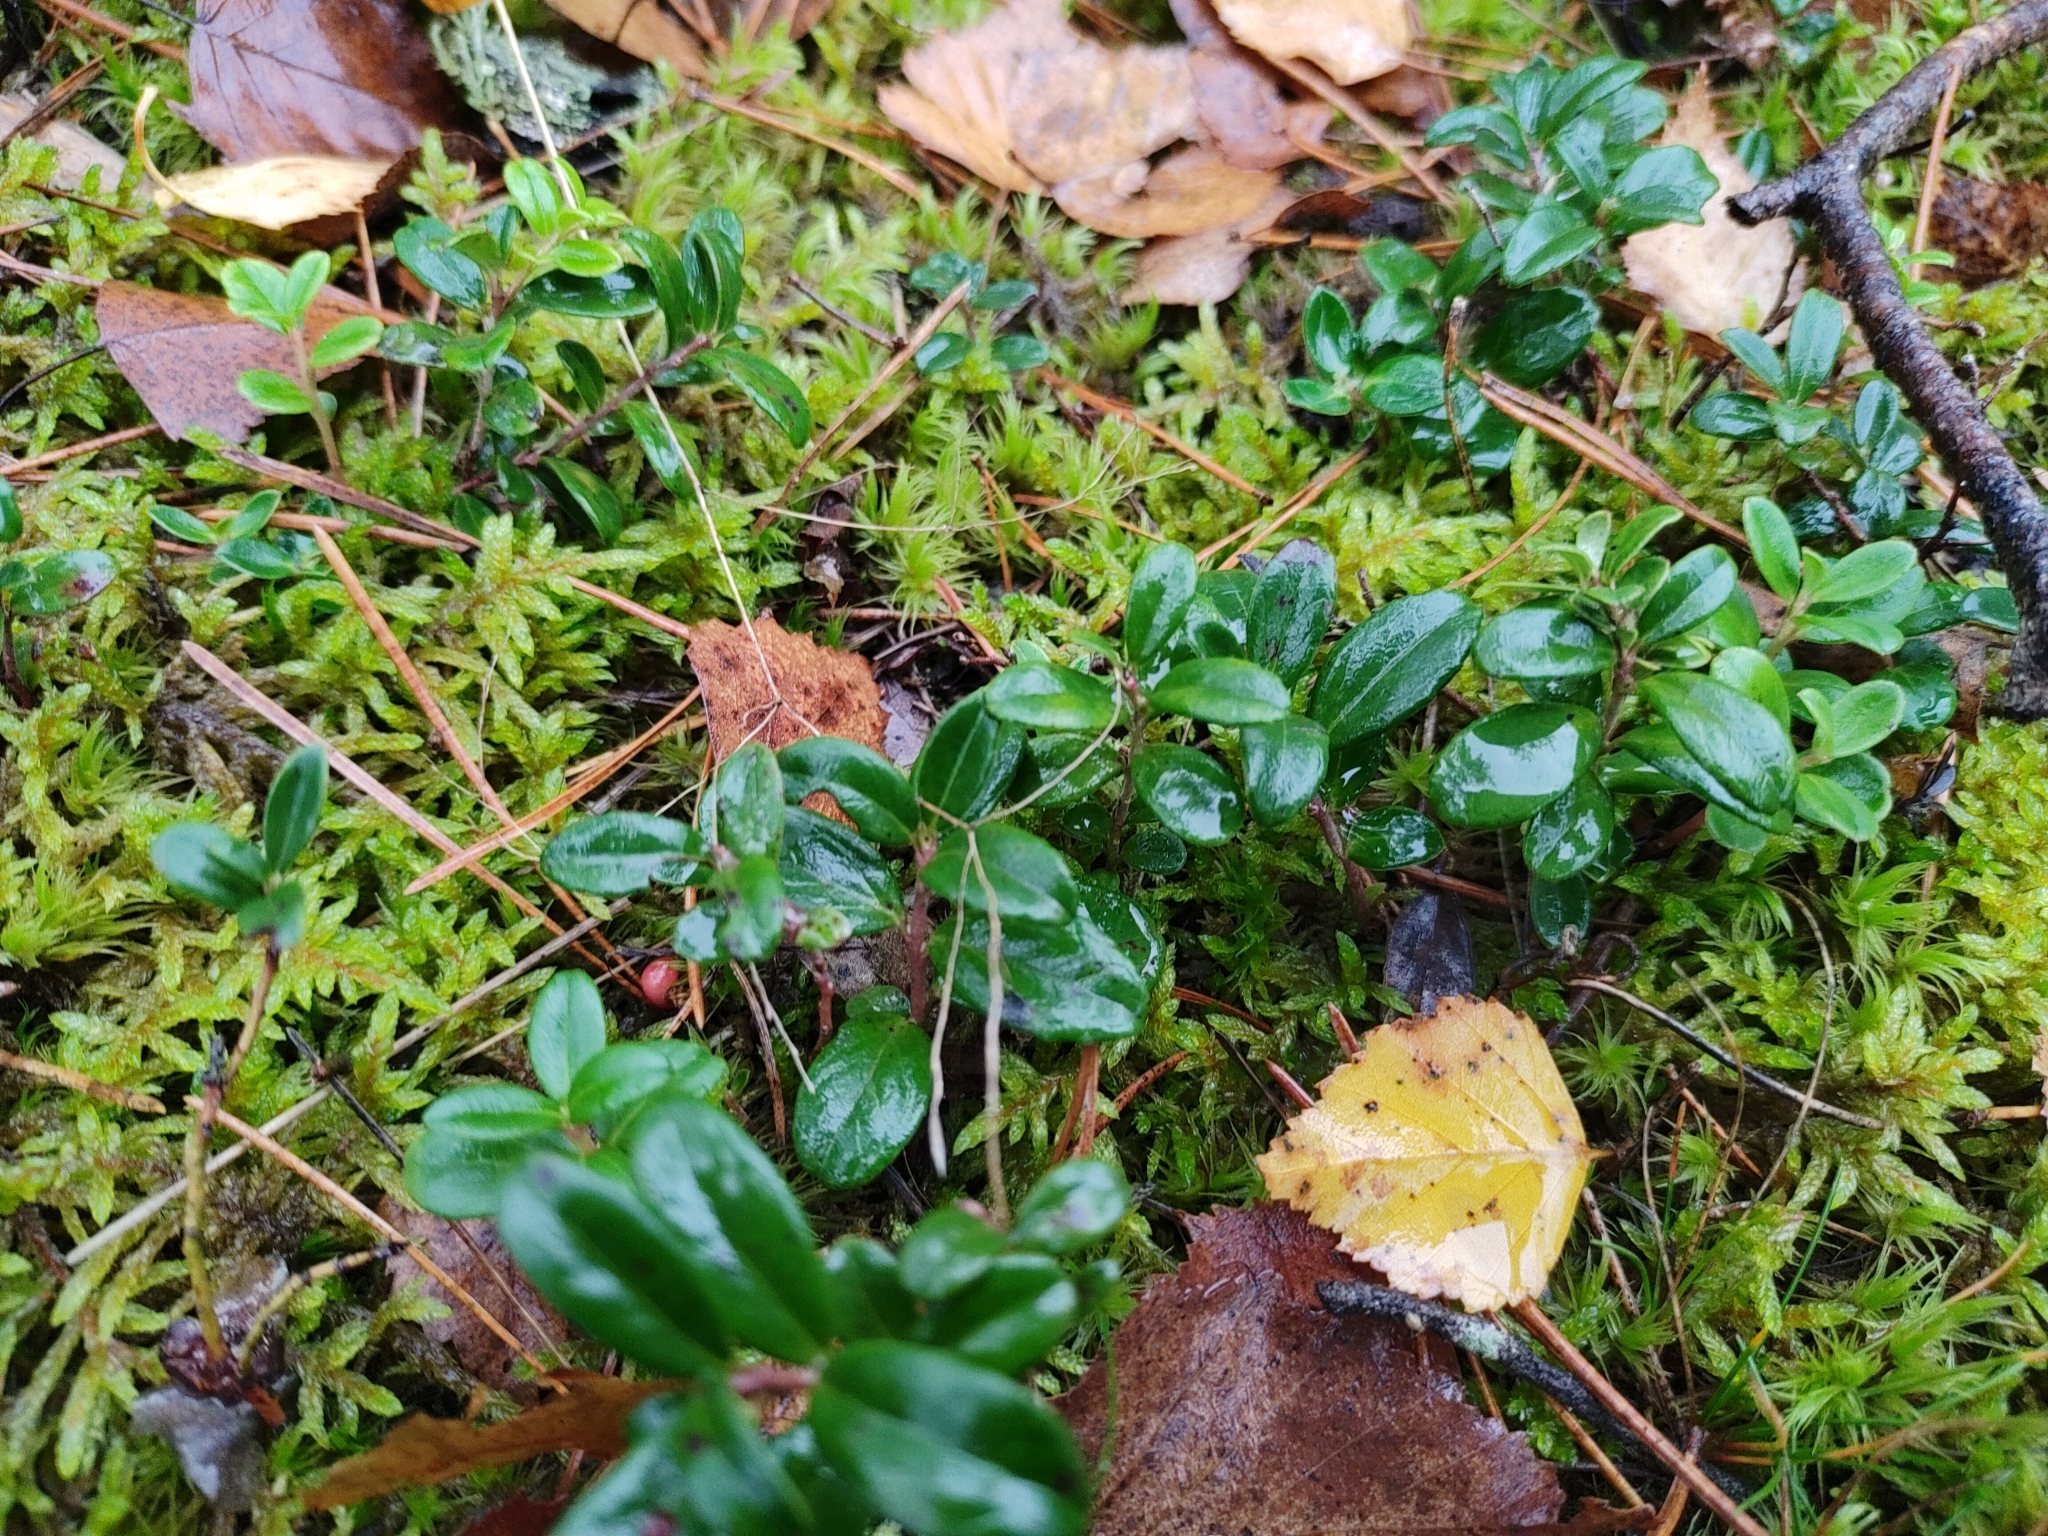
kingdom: Plantae
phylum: Tracheophyta
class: Magnoliopsida
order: Ericales
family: Ericaceae
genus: Vaccinium
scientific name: Vaccinium vitis-idaea
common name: Cowberry
